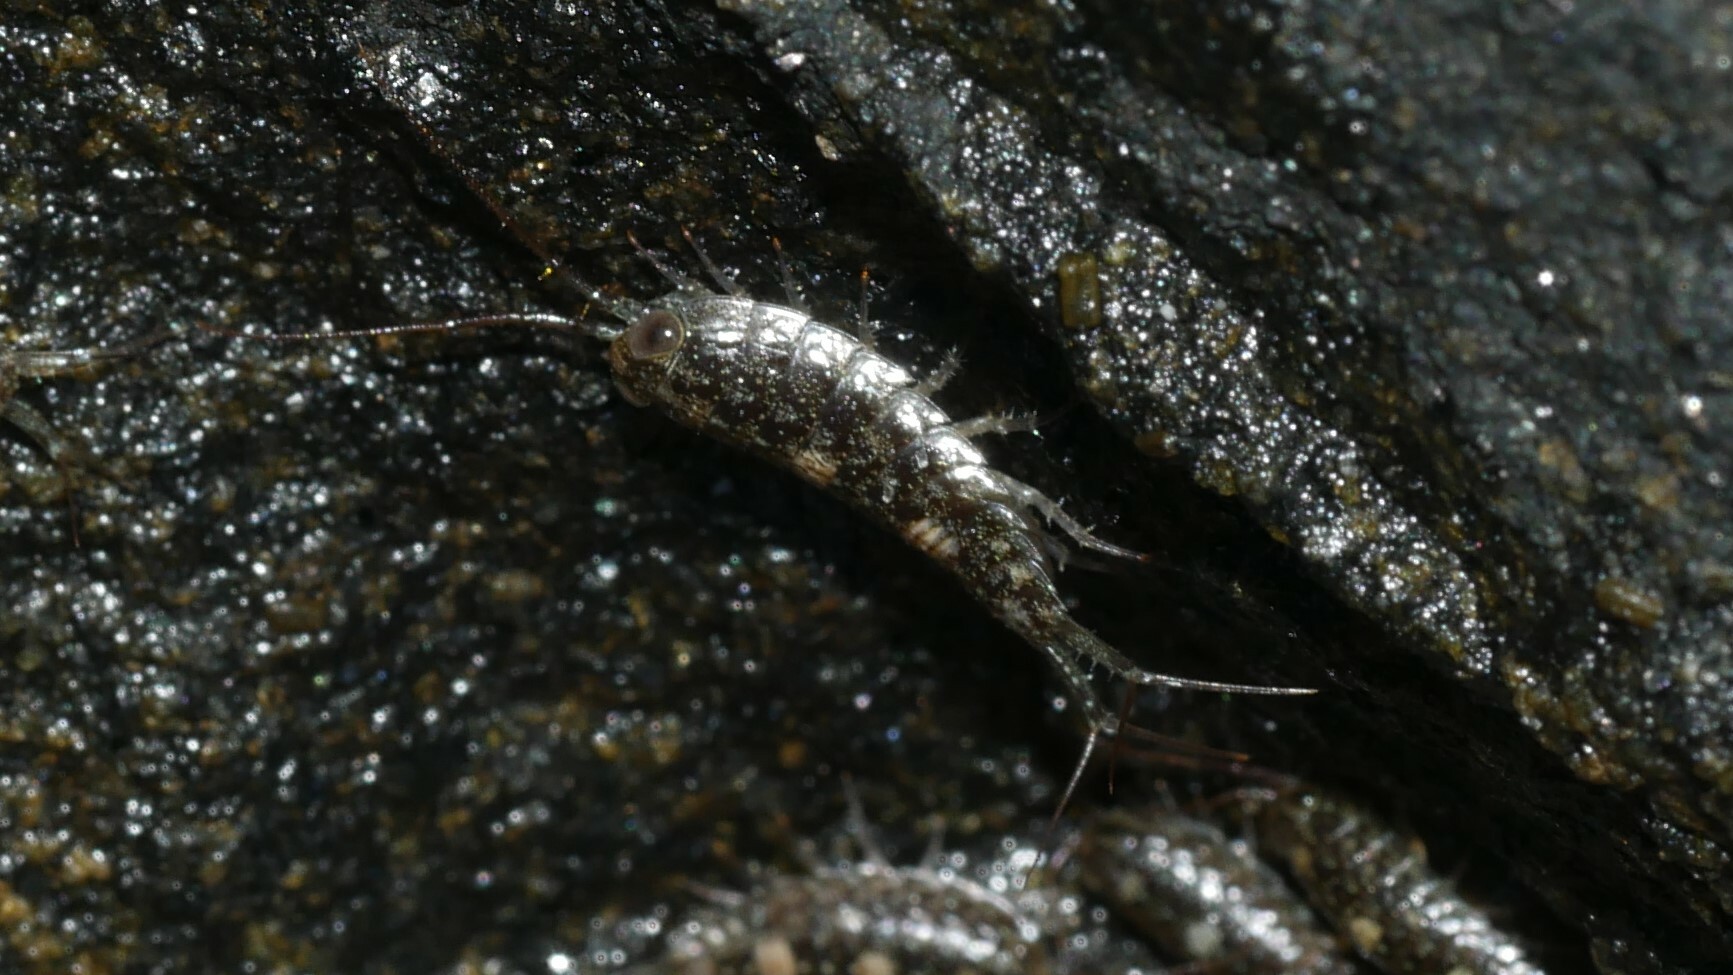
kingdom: Animalia
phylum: Arthropoda
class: Malacostraca
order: Isopoda
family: Ligiidae
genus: Ligia
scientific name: Ligia exotica
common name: Wharf roach
